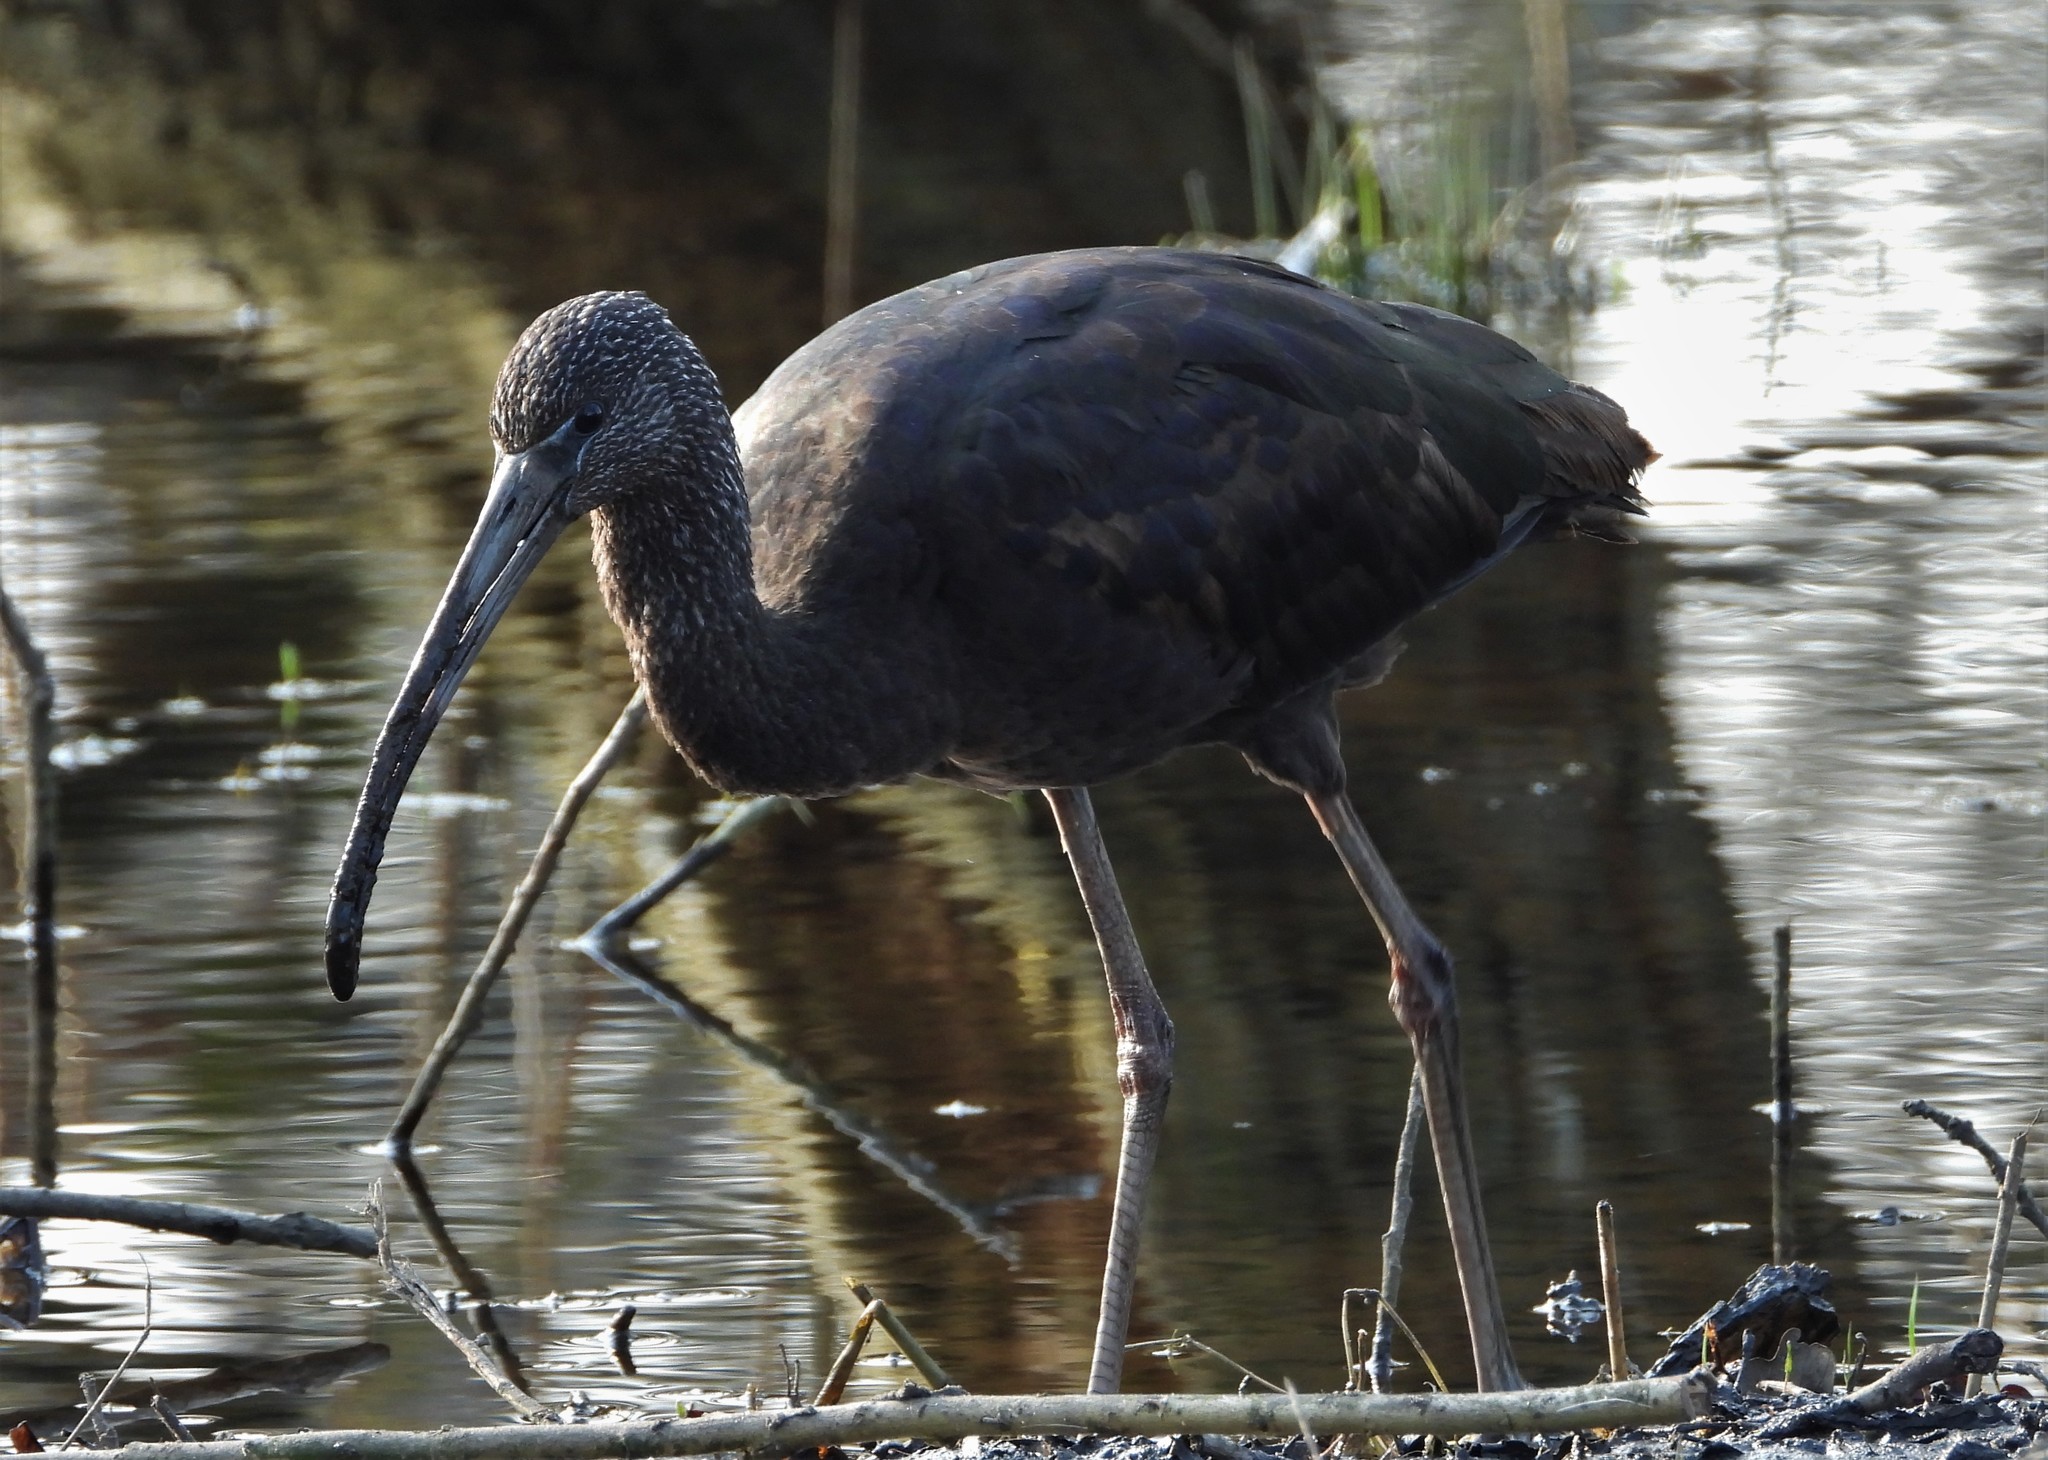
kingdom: Animalia
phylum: Chordata
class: Aves
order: Pelecaniformes
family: Threskiornithidae
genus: Plegadis
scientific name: Plegadis falcinellus
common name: Glossy ibis
